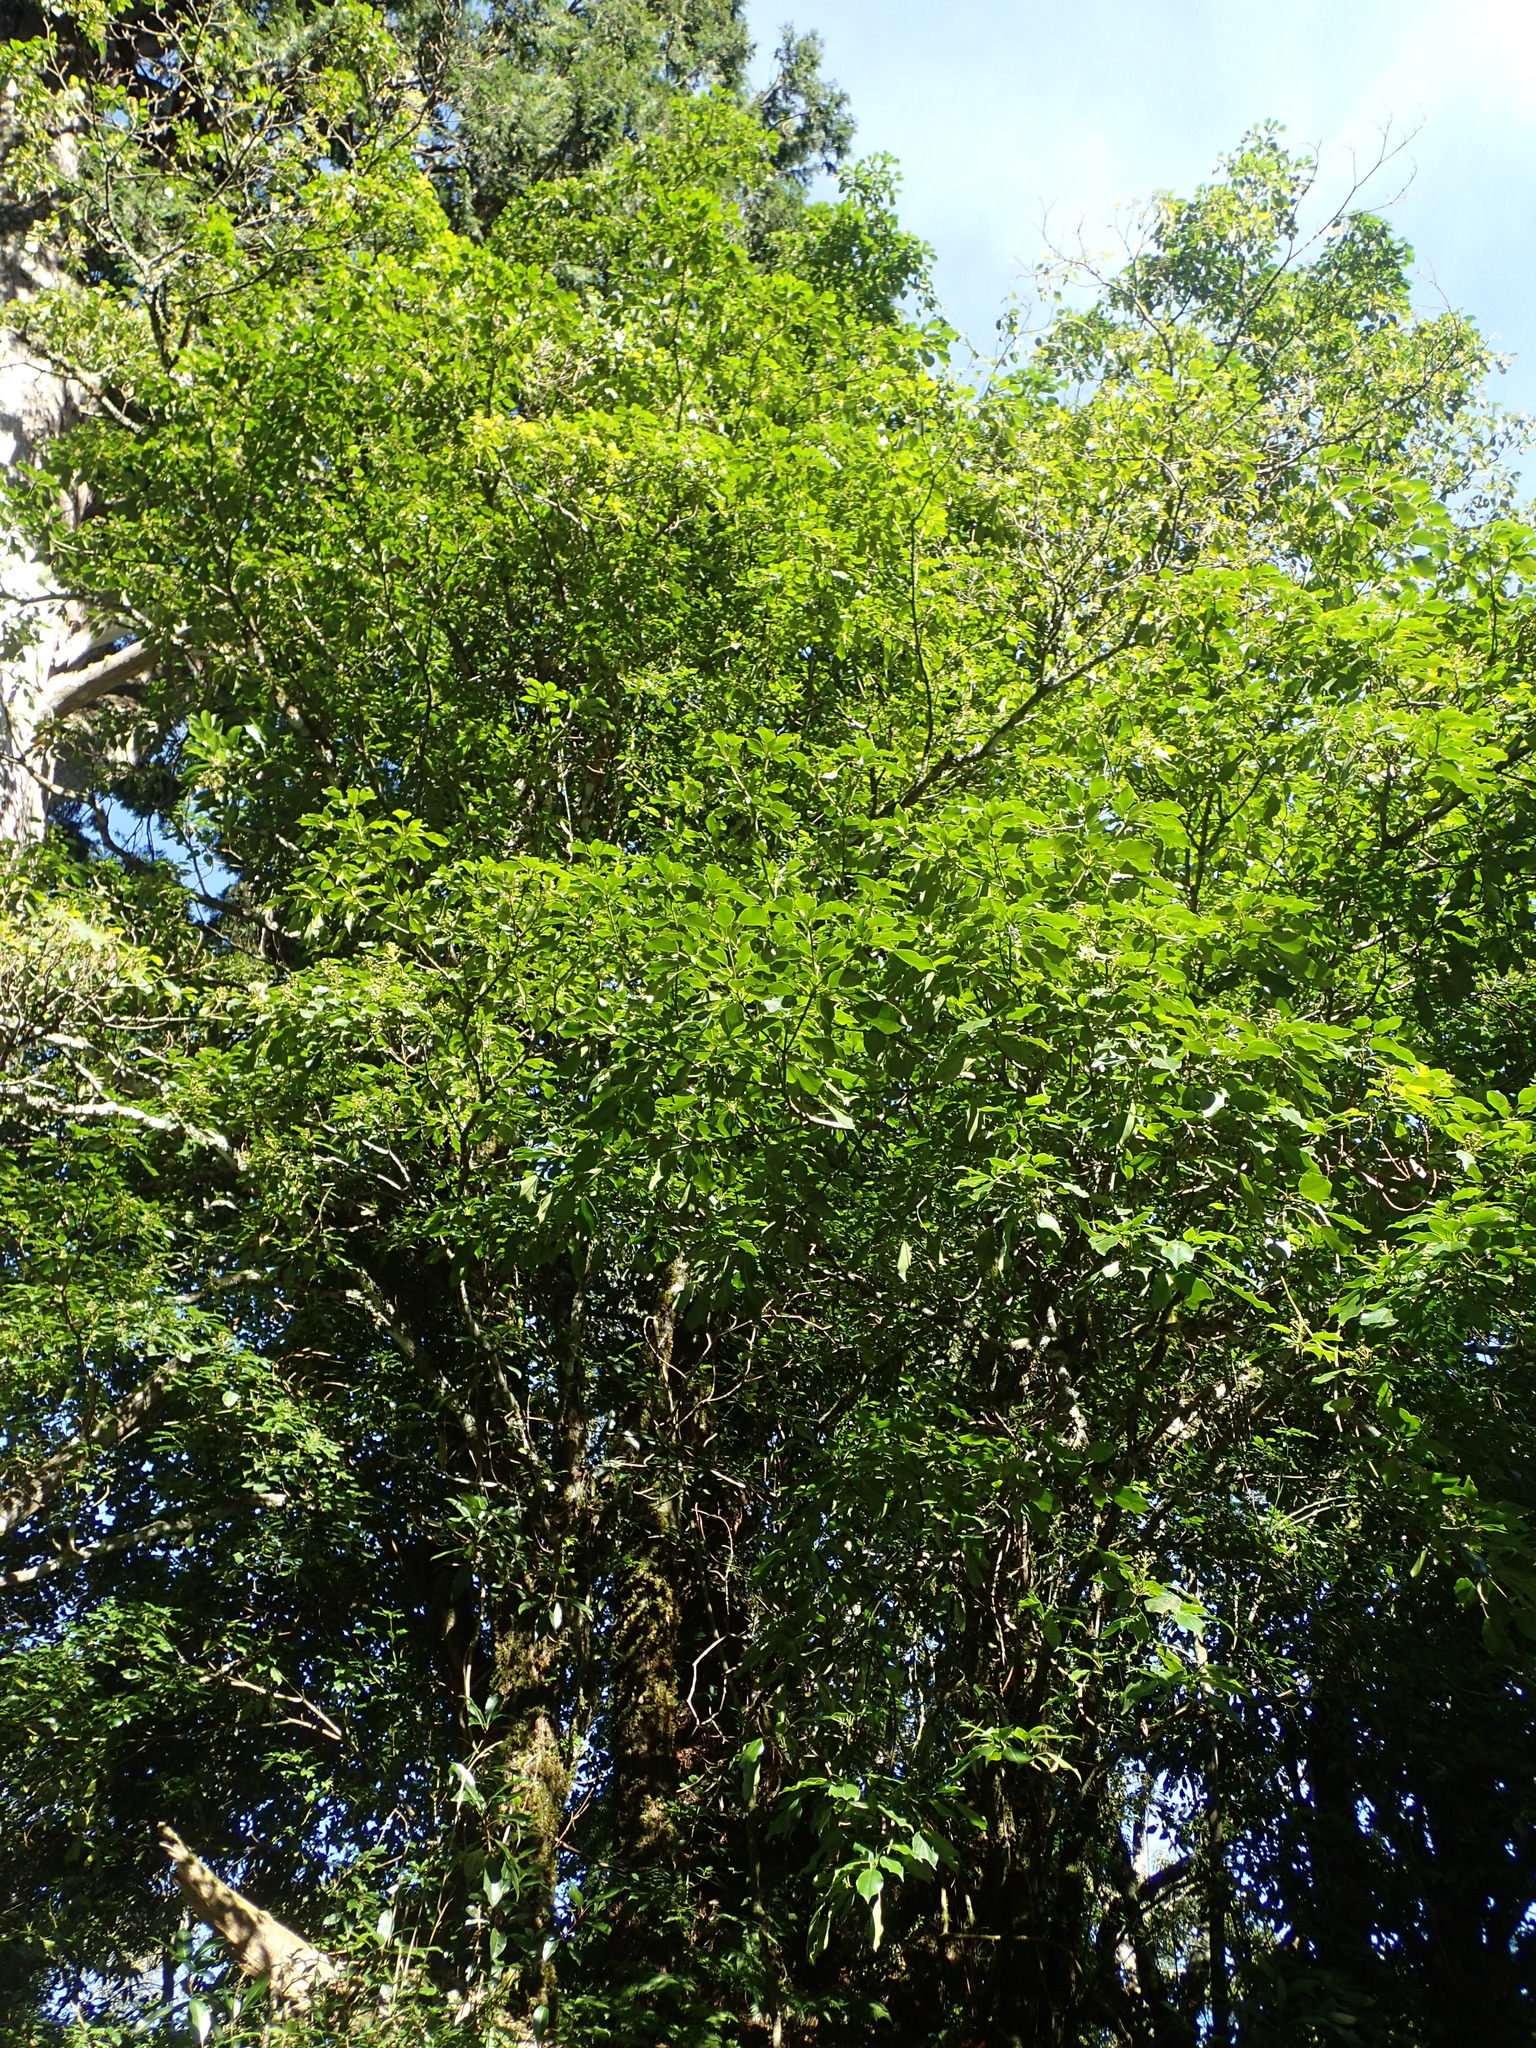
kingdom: Plantae
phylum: Tracheophyta
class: Magnoliopsida
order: Trochodendrales
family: Trochodendraceae
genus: Trochodendron
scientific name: Trochodendron aralioides
